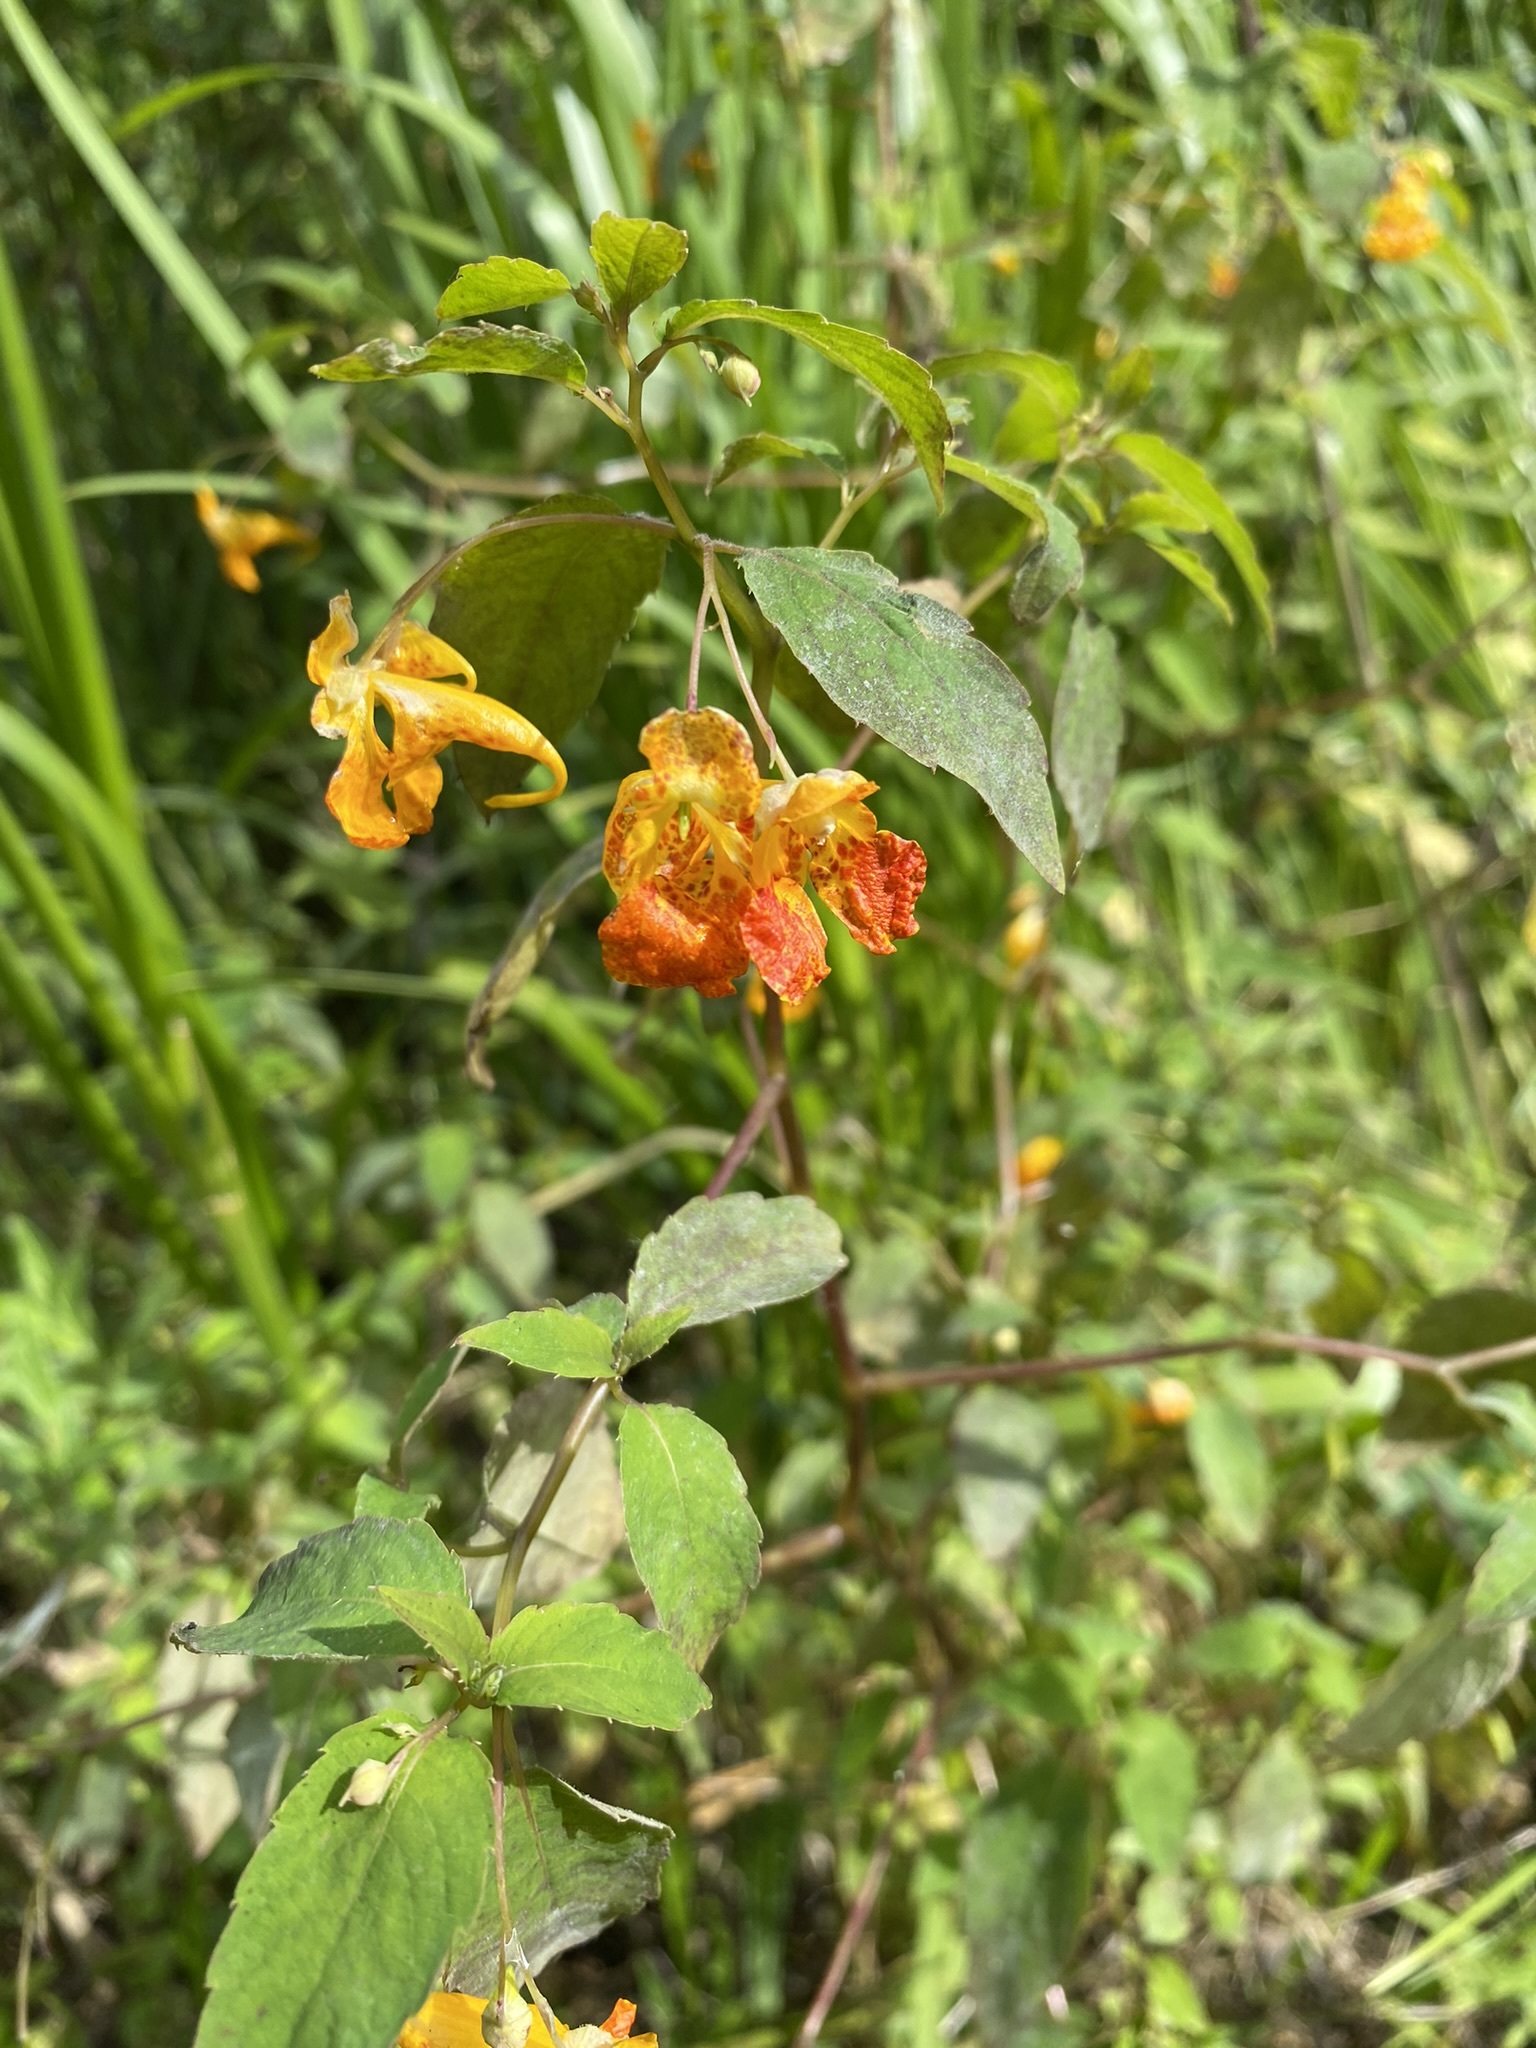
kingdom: Plantae
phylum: Tracheophyta
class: Magnoliopsida
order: Ericales
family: Balsaminaceae
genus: Impatiens
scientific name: Impatiens capensis
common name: Orange balsam
